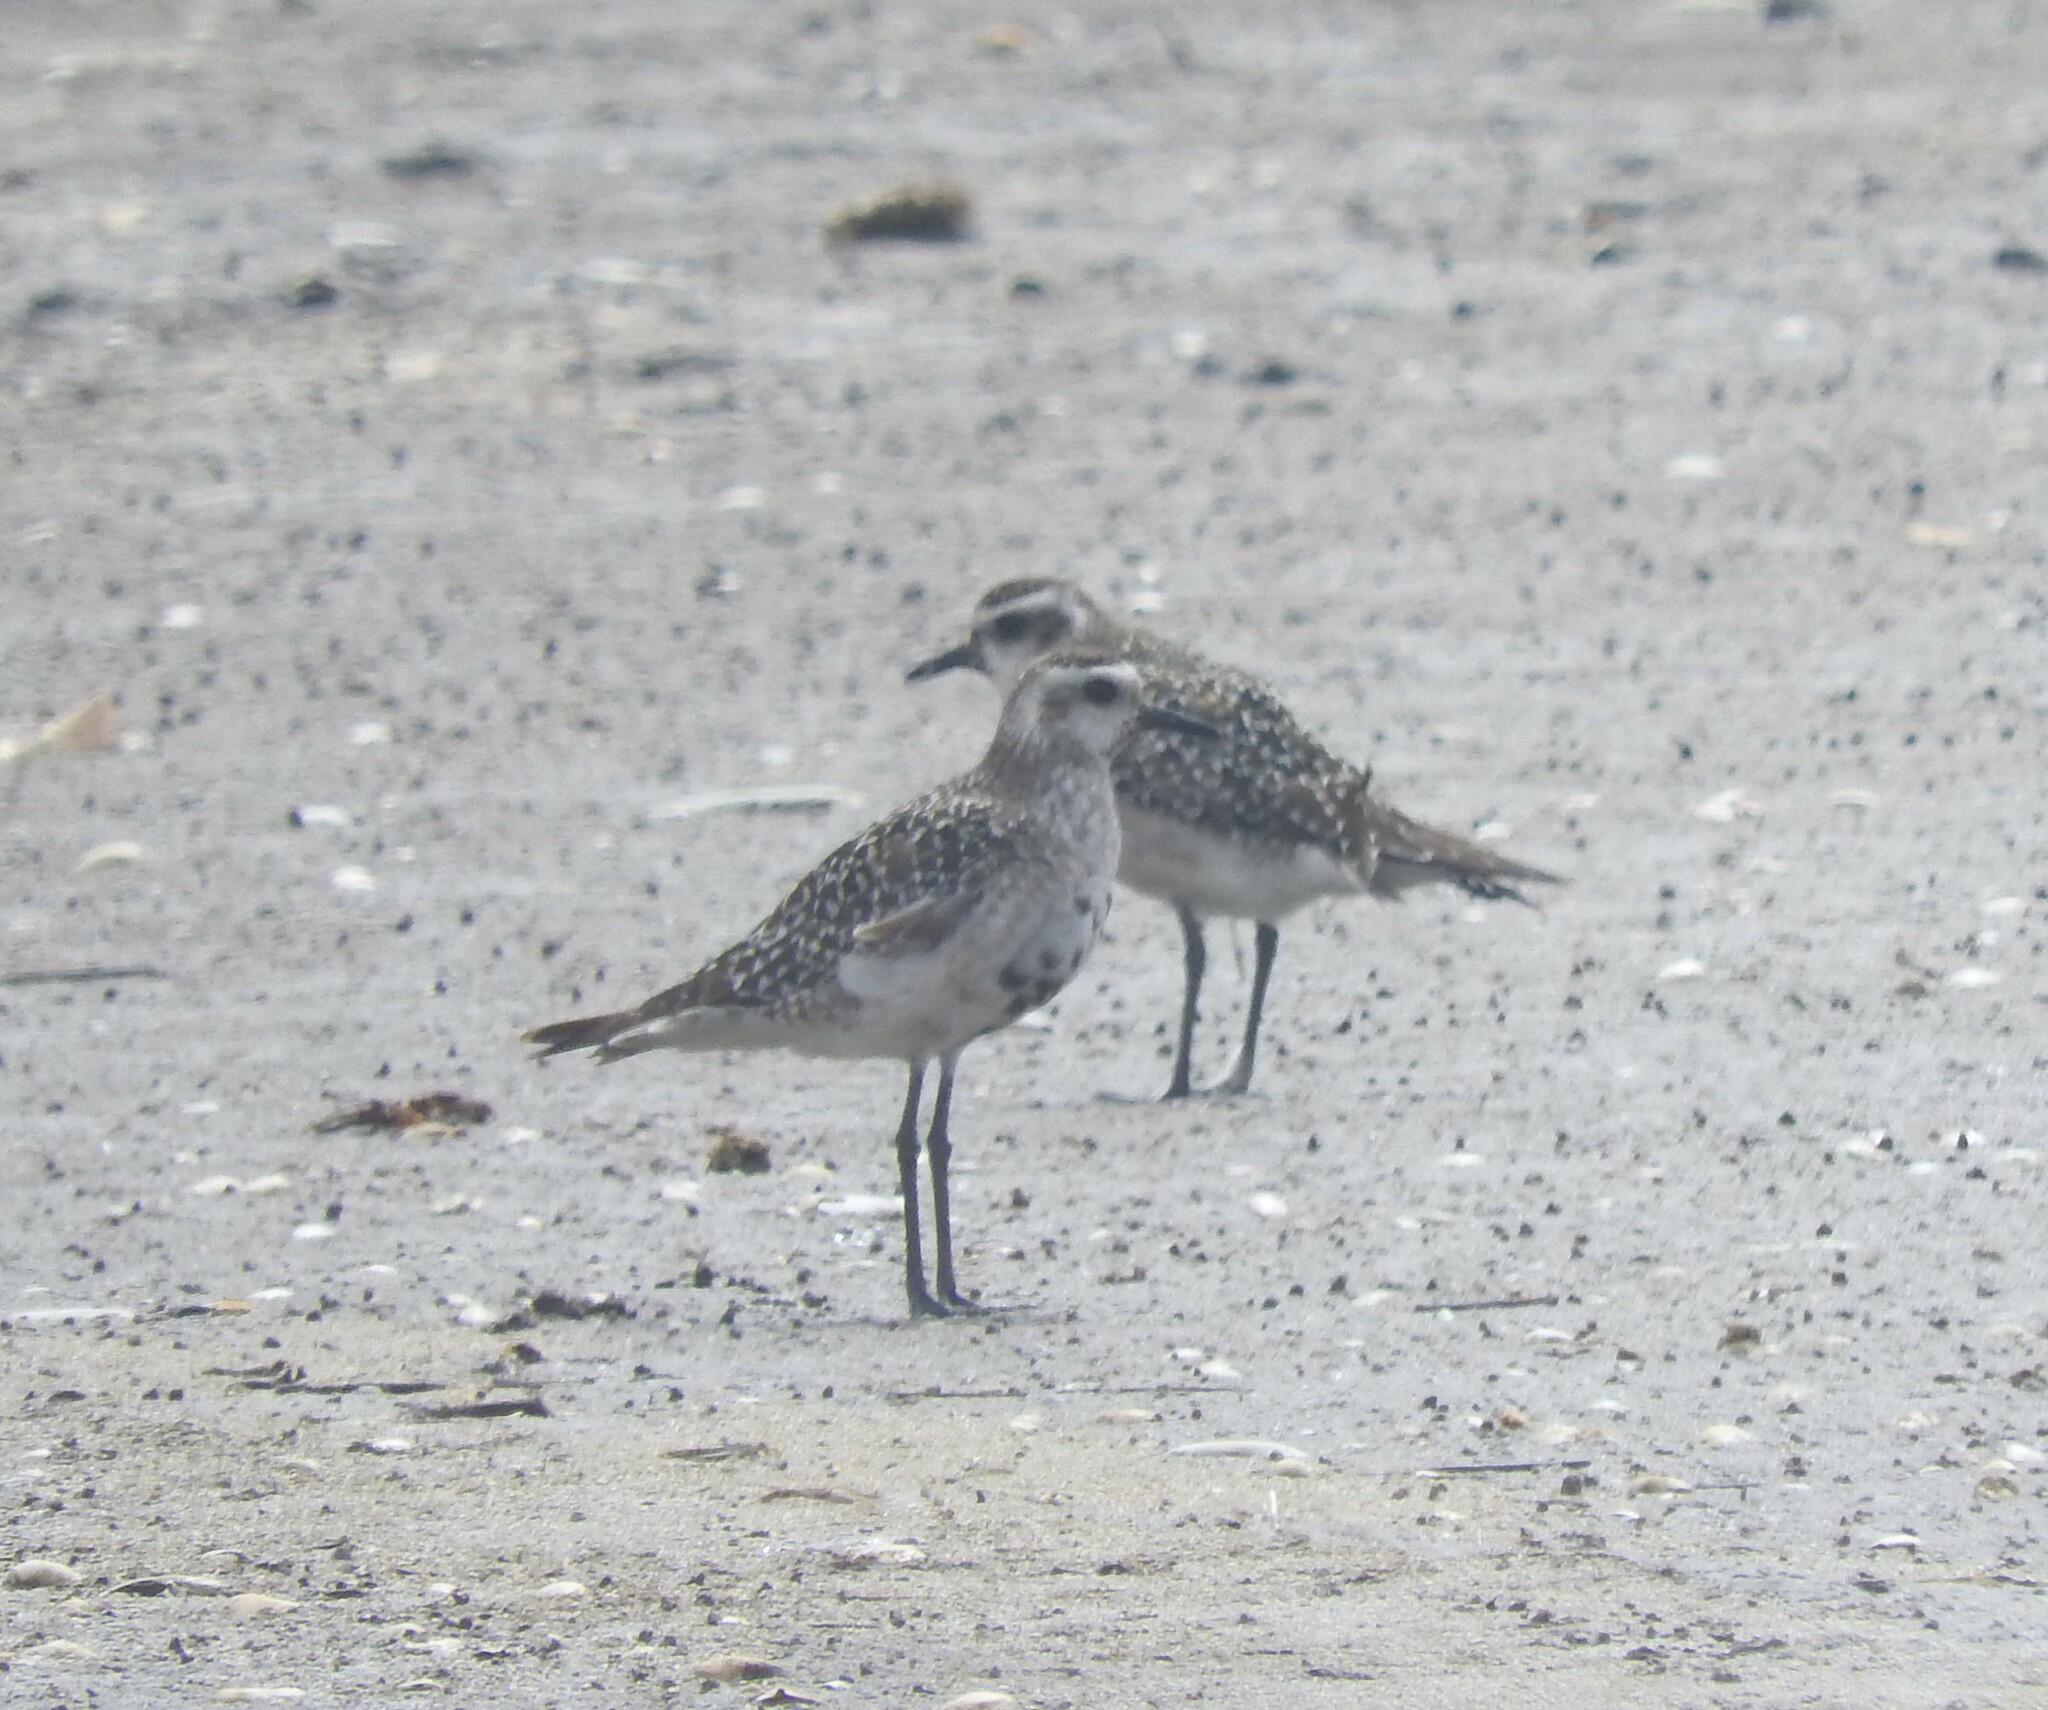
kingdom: Animalia
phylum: Chordata
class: Aves
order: Charadriiformes
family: Charadriidae
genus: Pluvialis
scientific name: Pluvialis dominica
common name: American golden plover
